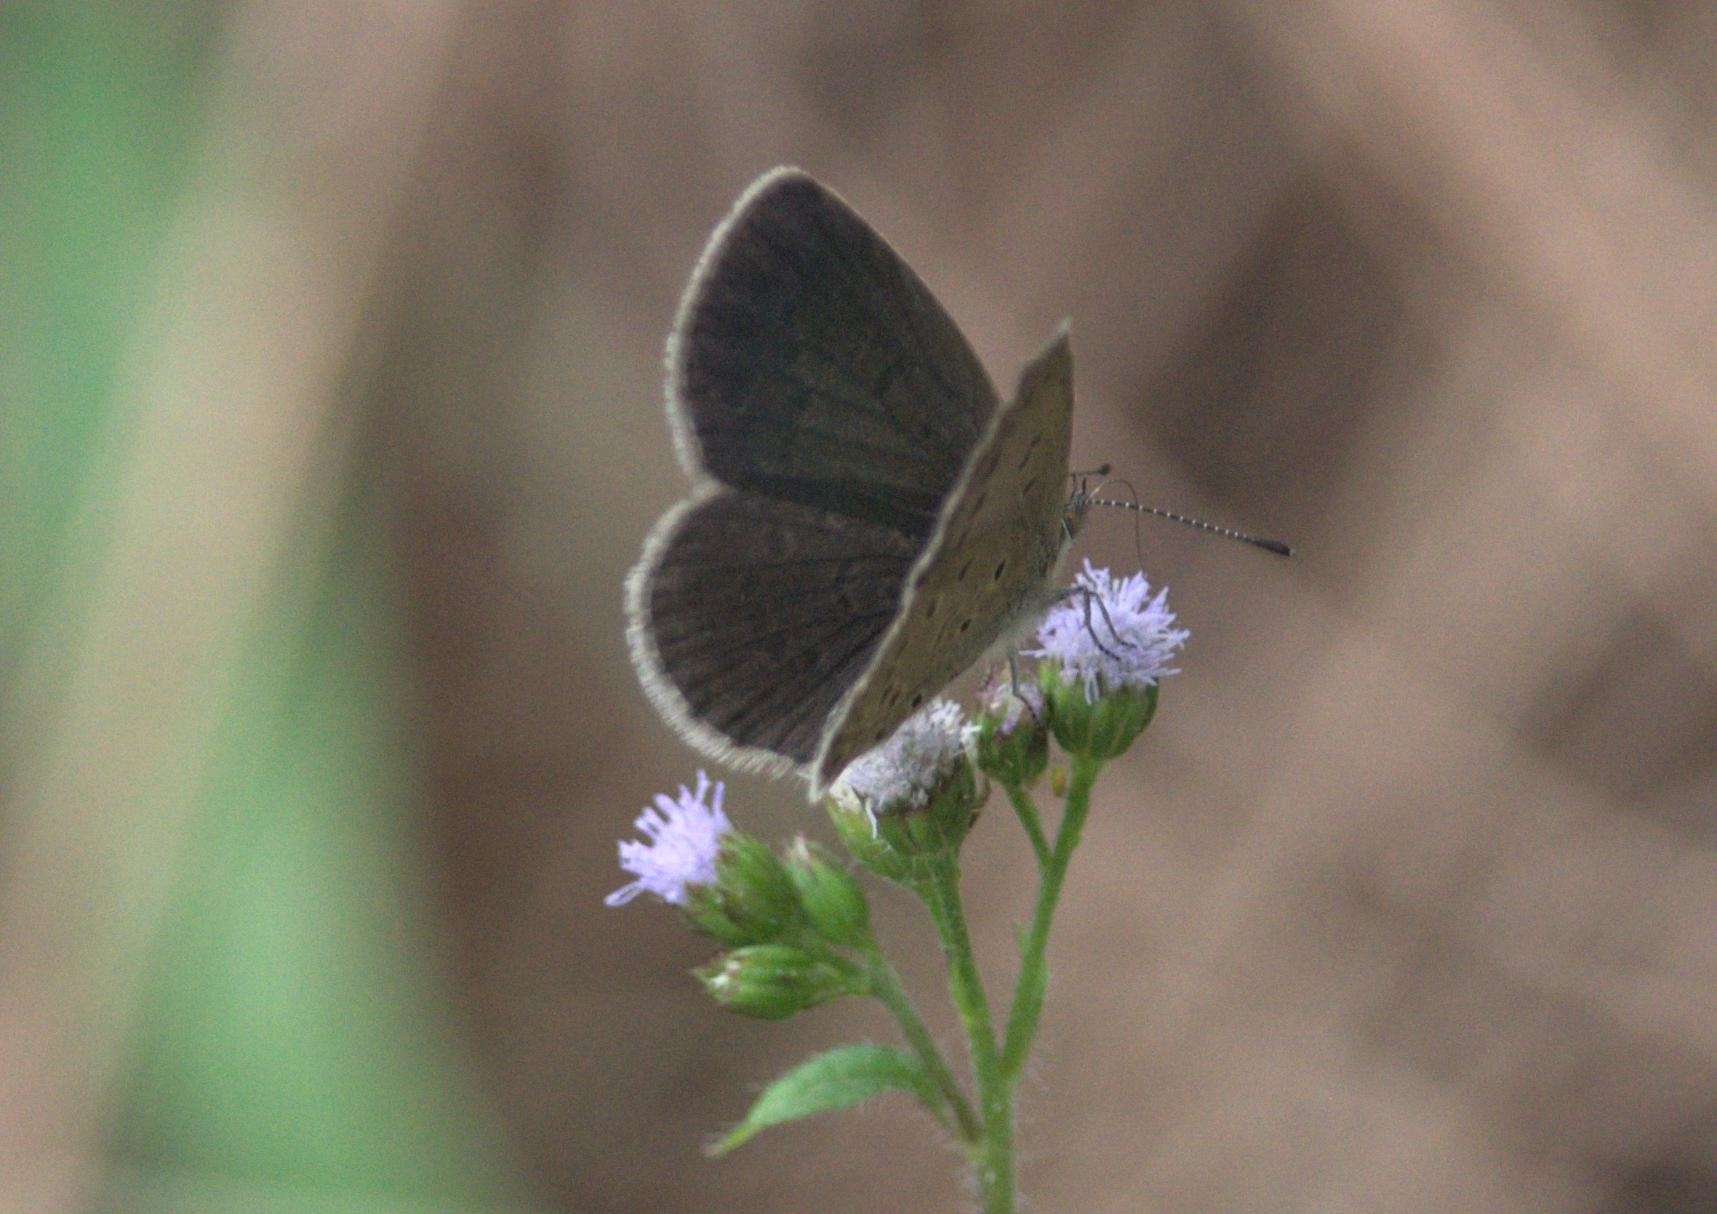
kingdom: Animalia
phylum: Arthropoda
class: Insecta
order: Lepidoptera
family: Lycaenidae
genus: Pseudozizeeria
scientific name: Pseudozizeeria maha
